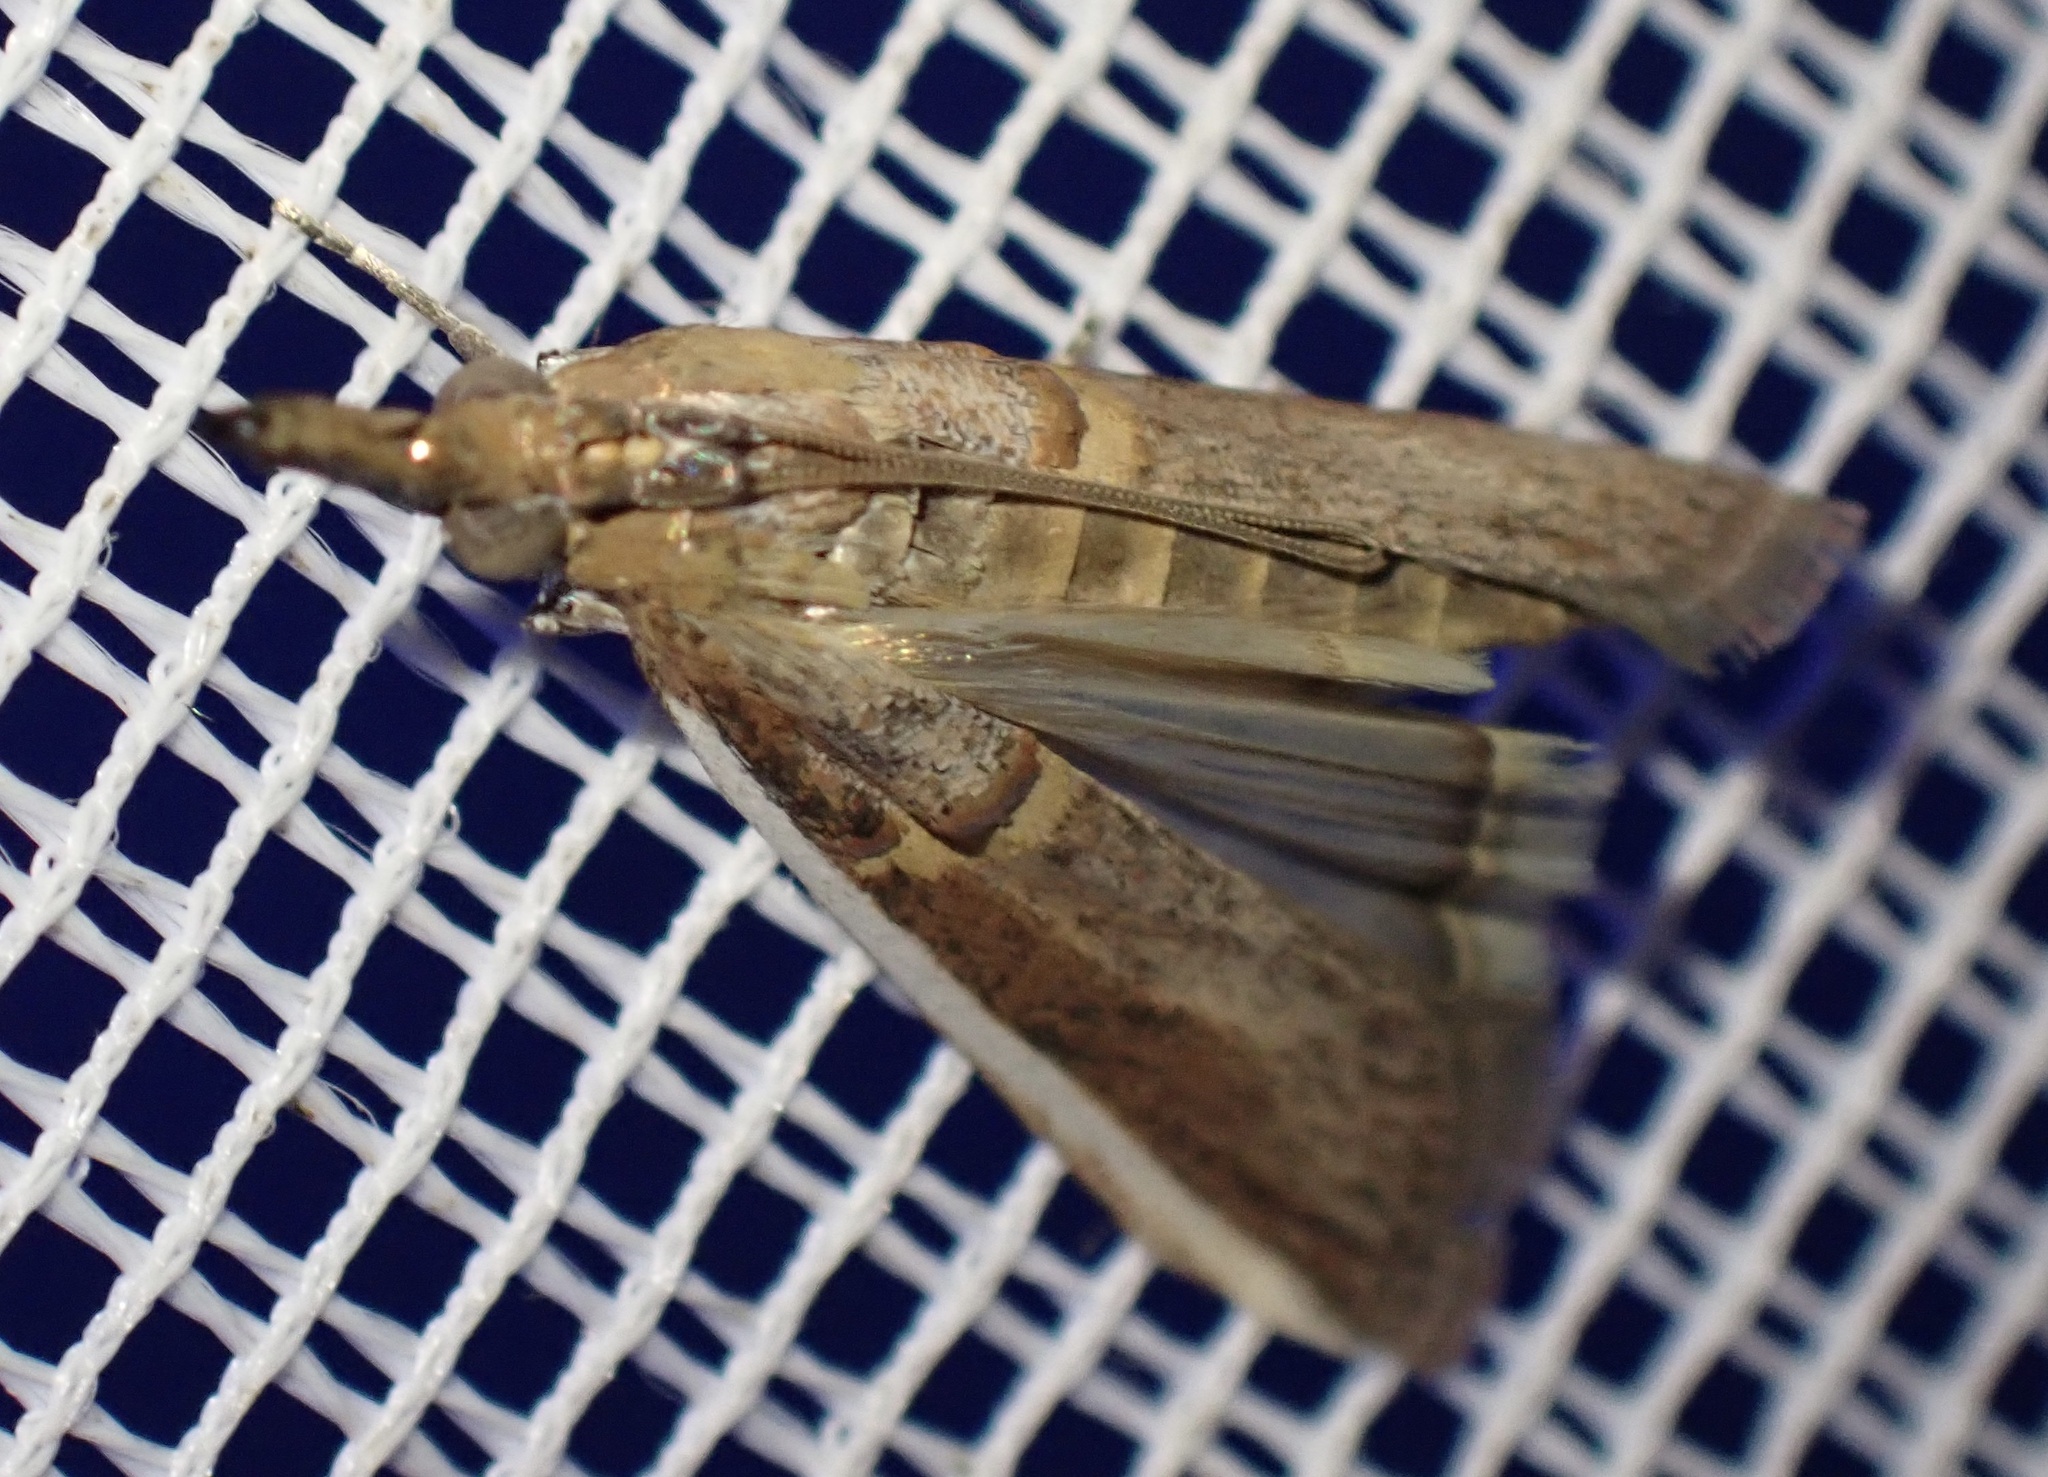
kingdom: Animalia
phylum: Arthropoda
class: Insecta
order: Lepidoptera
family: Pyralidae
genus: Etiella
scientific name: Etiella zinckenella
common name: Gold-banded etiella moth
